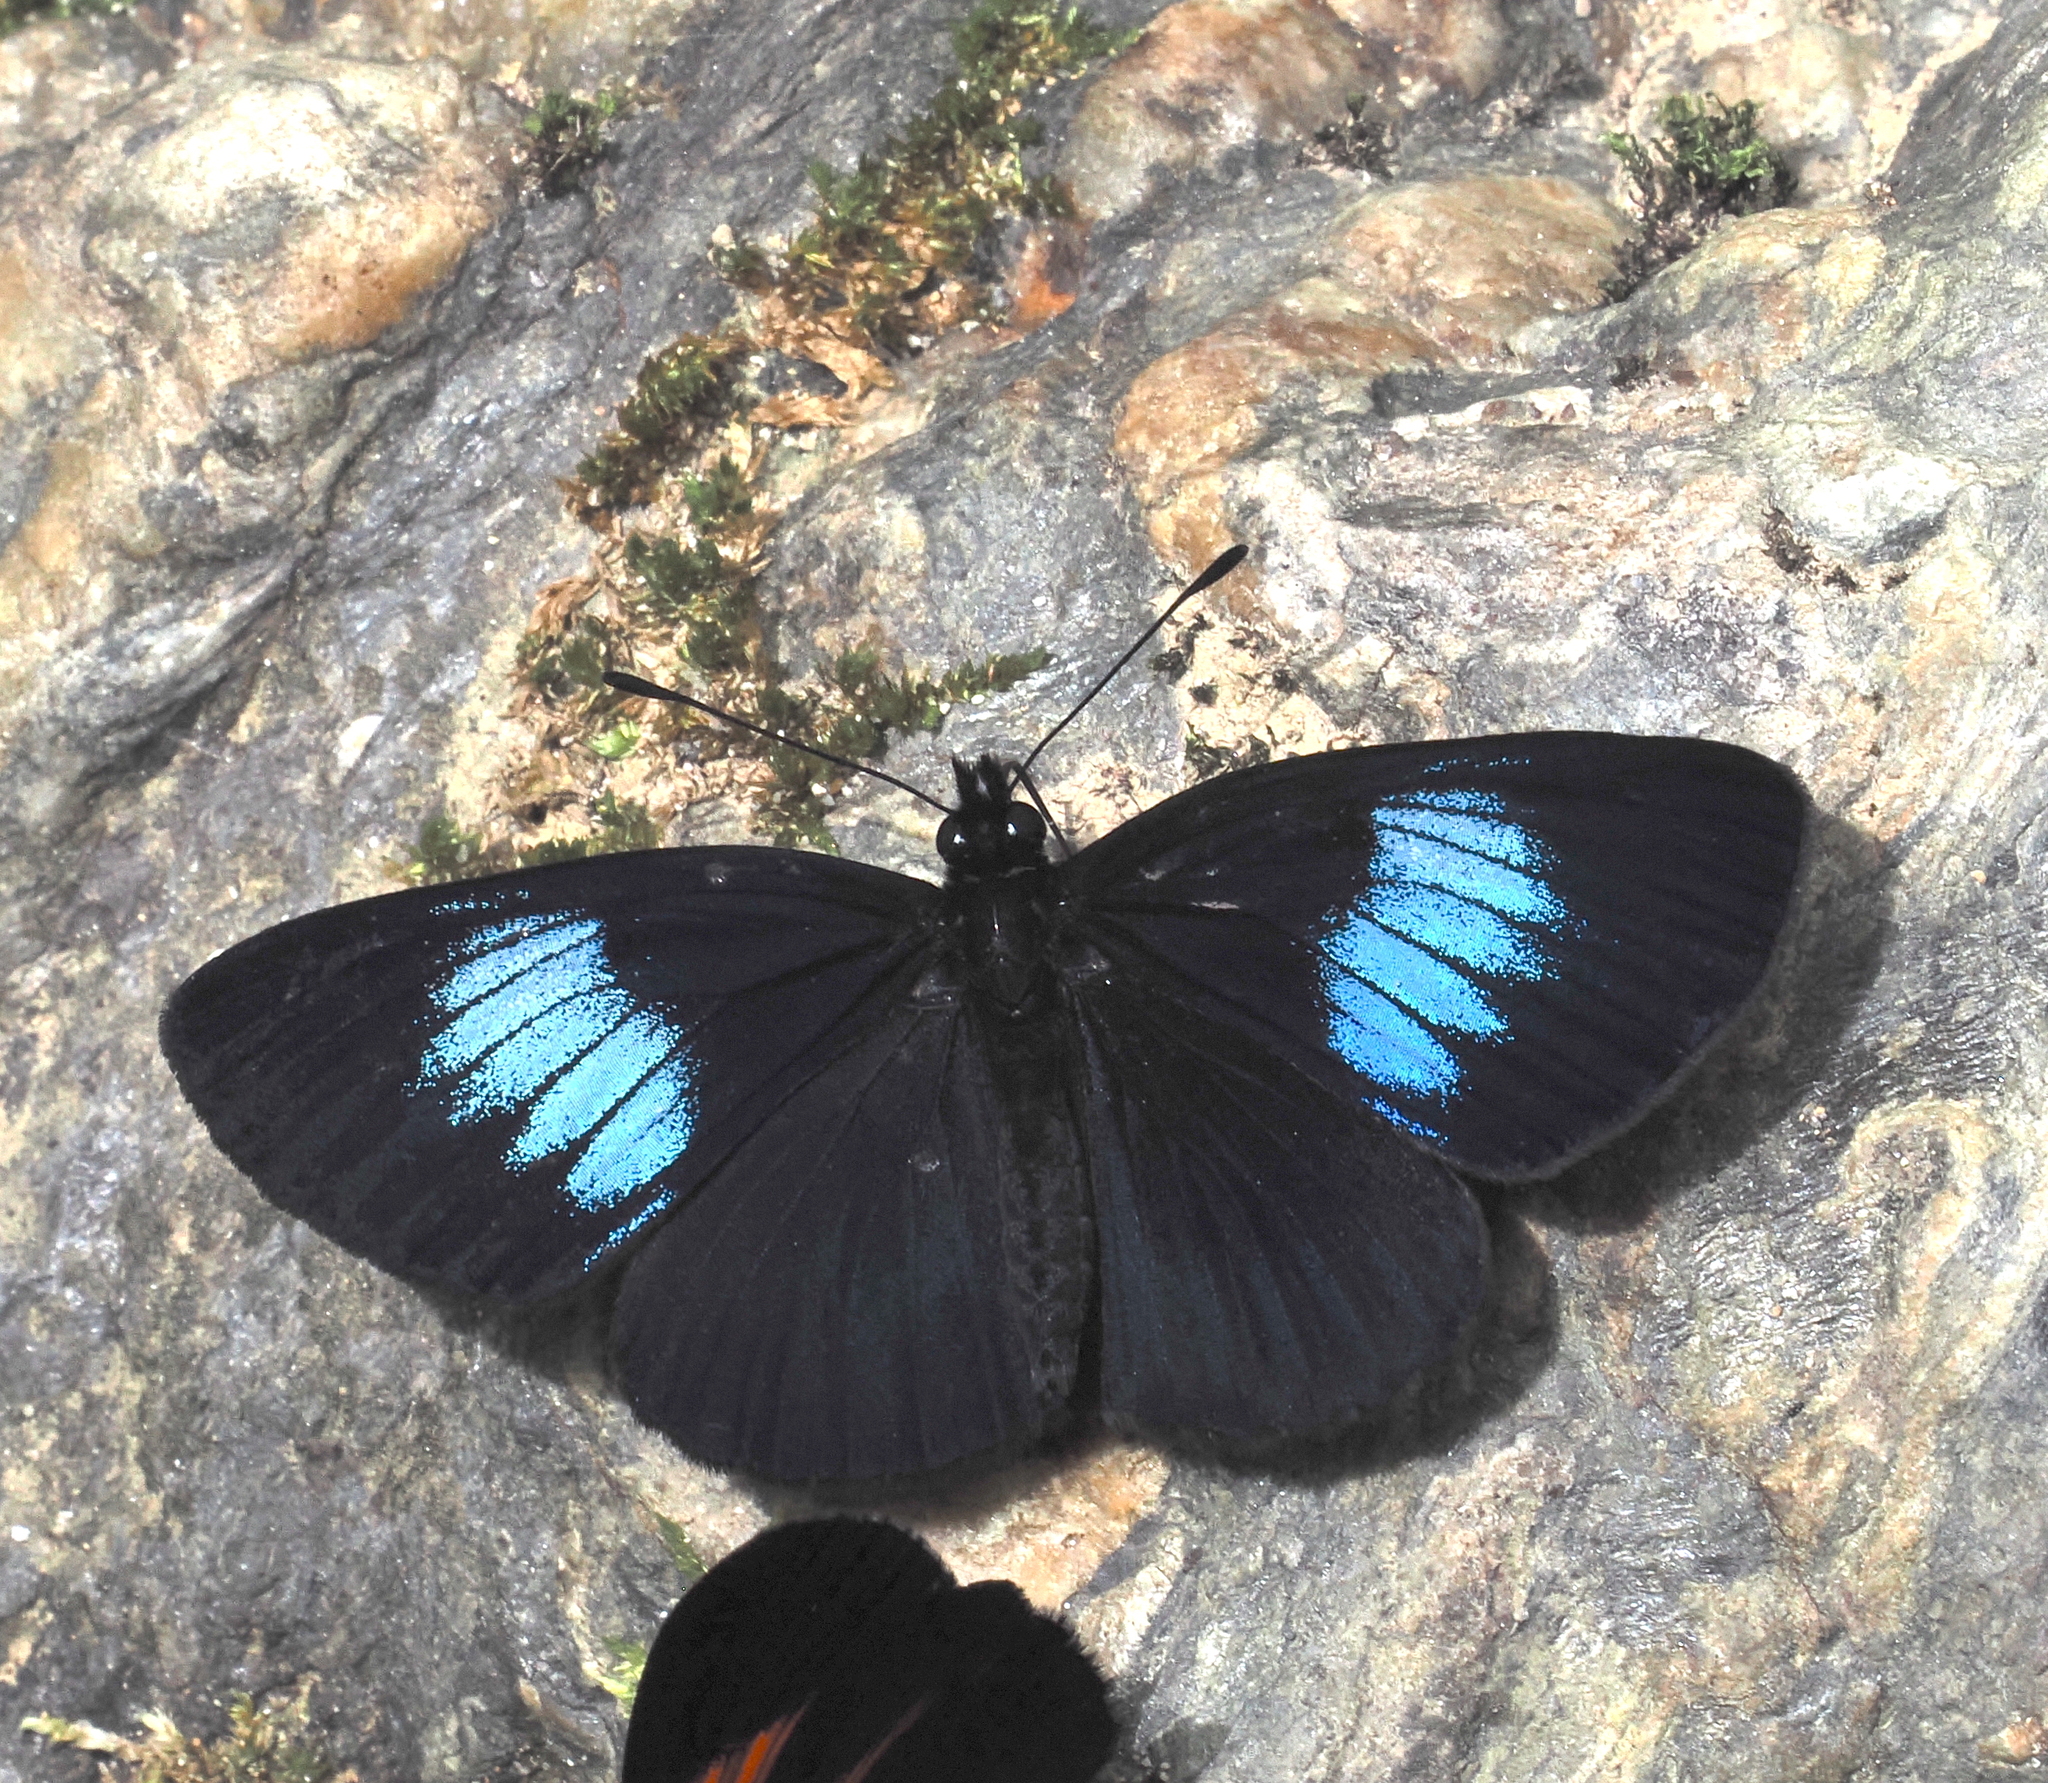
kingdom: Animalia
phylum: Arthropoda
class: Insecta
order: Lepidoptera
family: Nymphalidae
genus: Eresia
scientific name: Eresia levina
